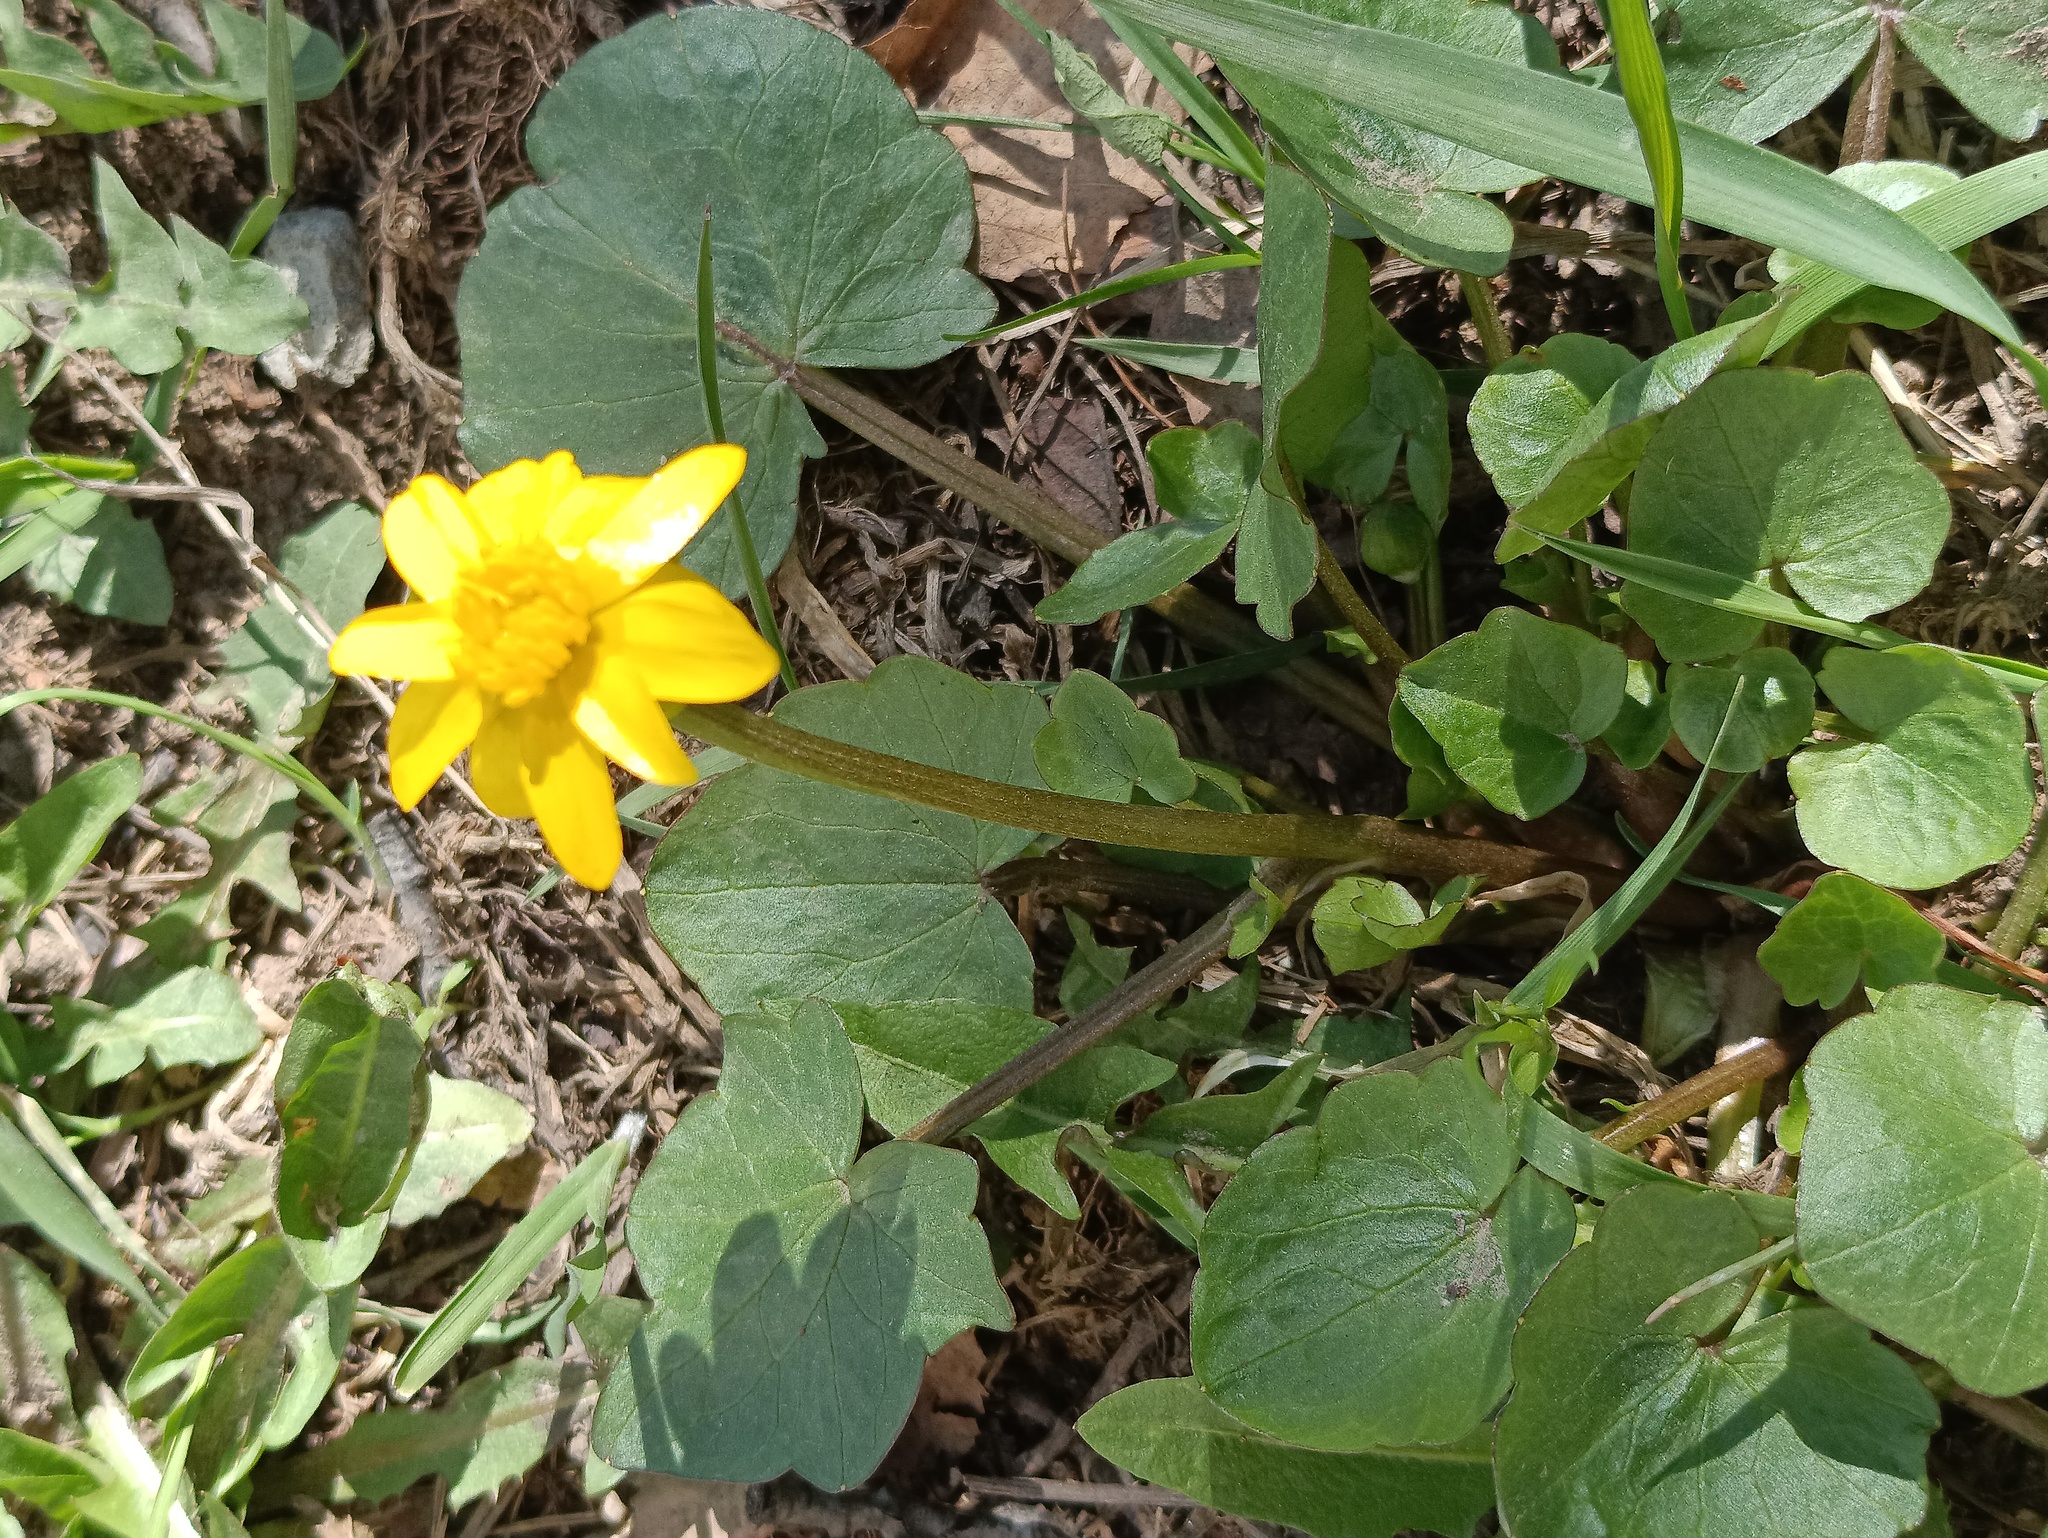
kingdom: Plantae
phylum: Tracheophyta
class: Magnoliopsida
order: Ranunculales
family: Ranunculaceae
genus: Ficaria
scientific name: Ficaria verna
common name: Lesser celandine
